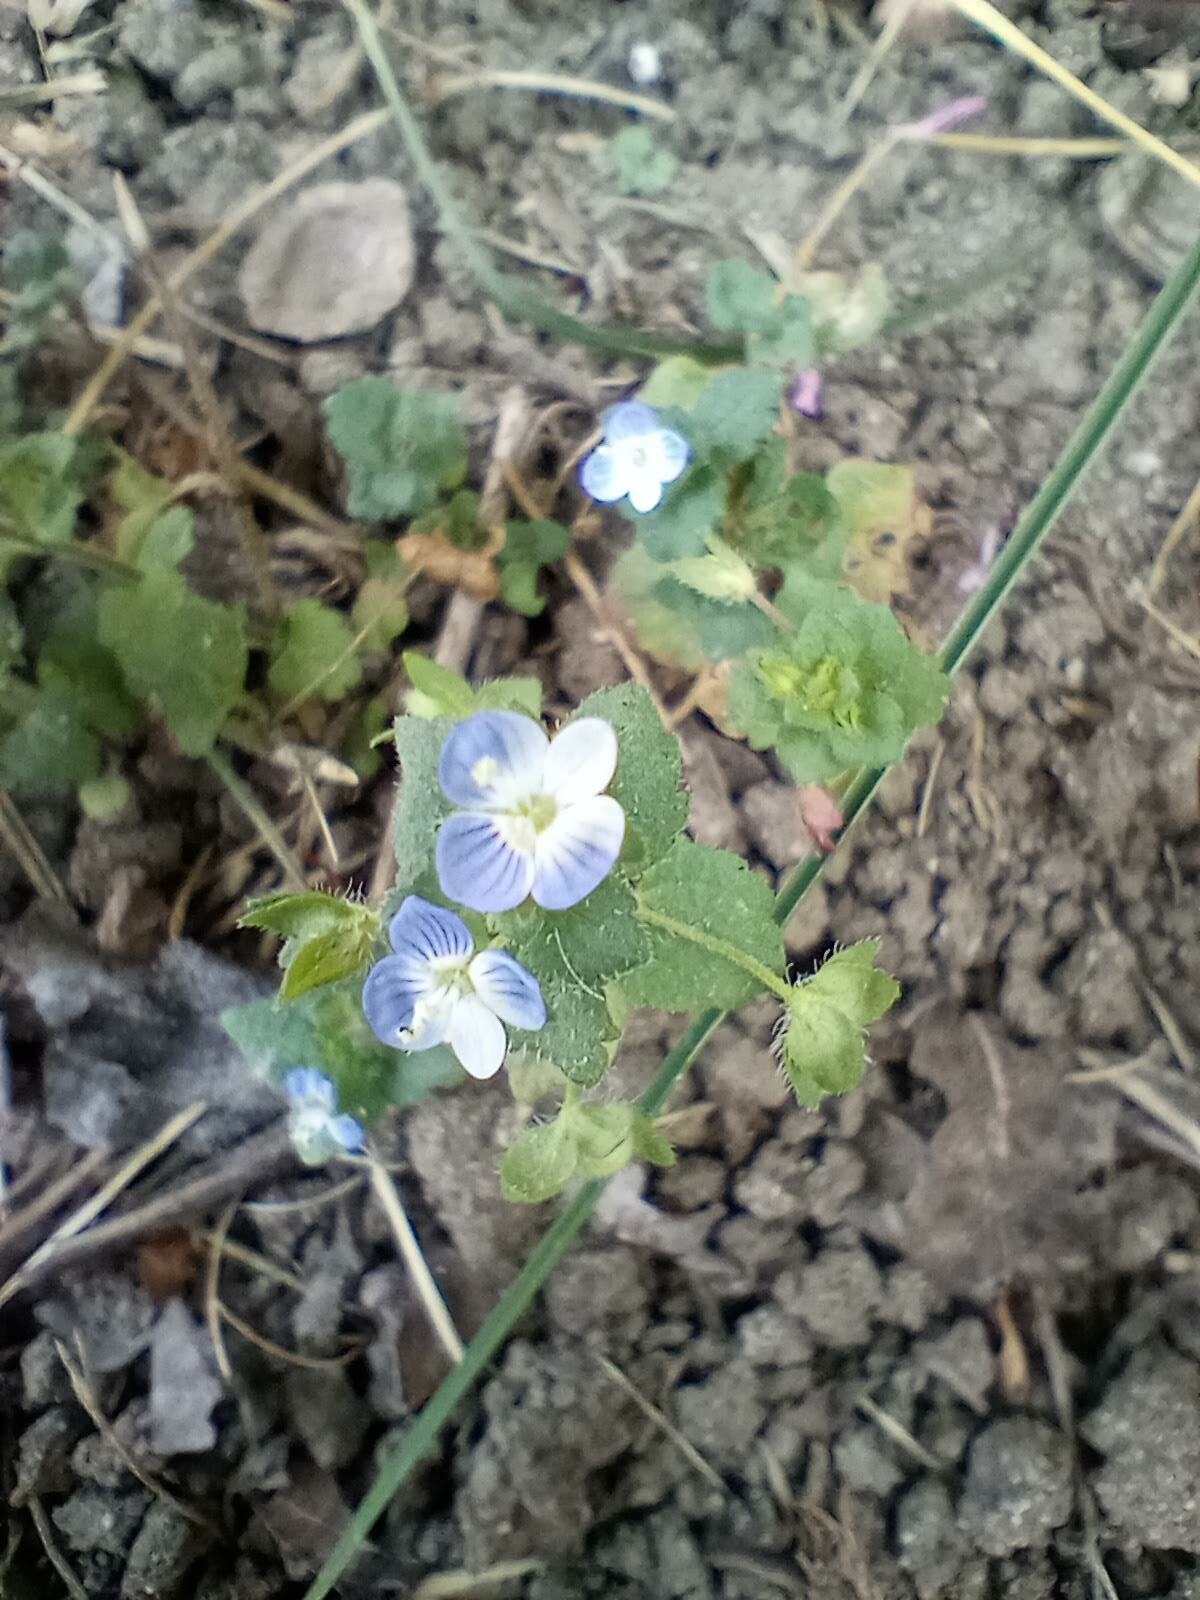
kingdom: Plantae
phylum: Tracheophyta
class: Magnoliopsida
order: Lamiales
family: Plantaginaceae
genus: Veronica
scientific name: Veronica persica
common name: Common field-speedwell
